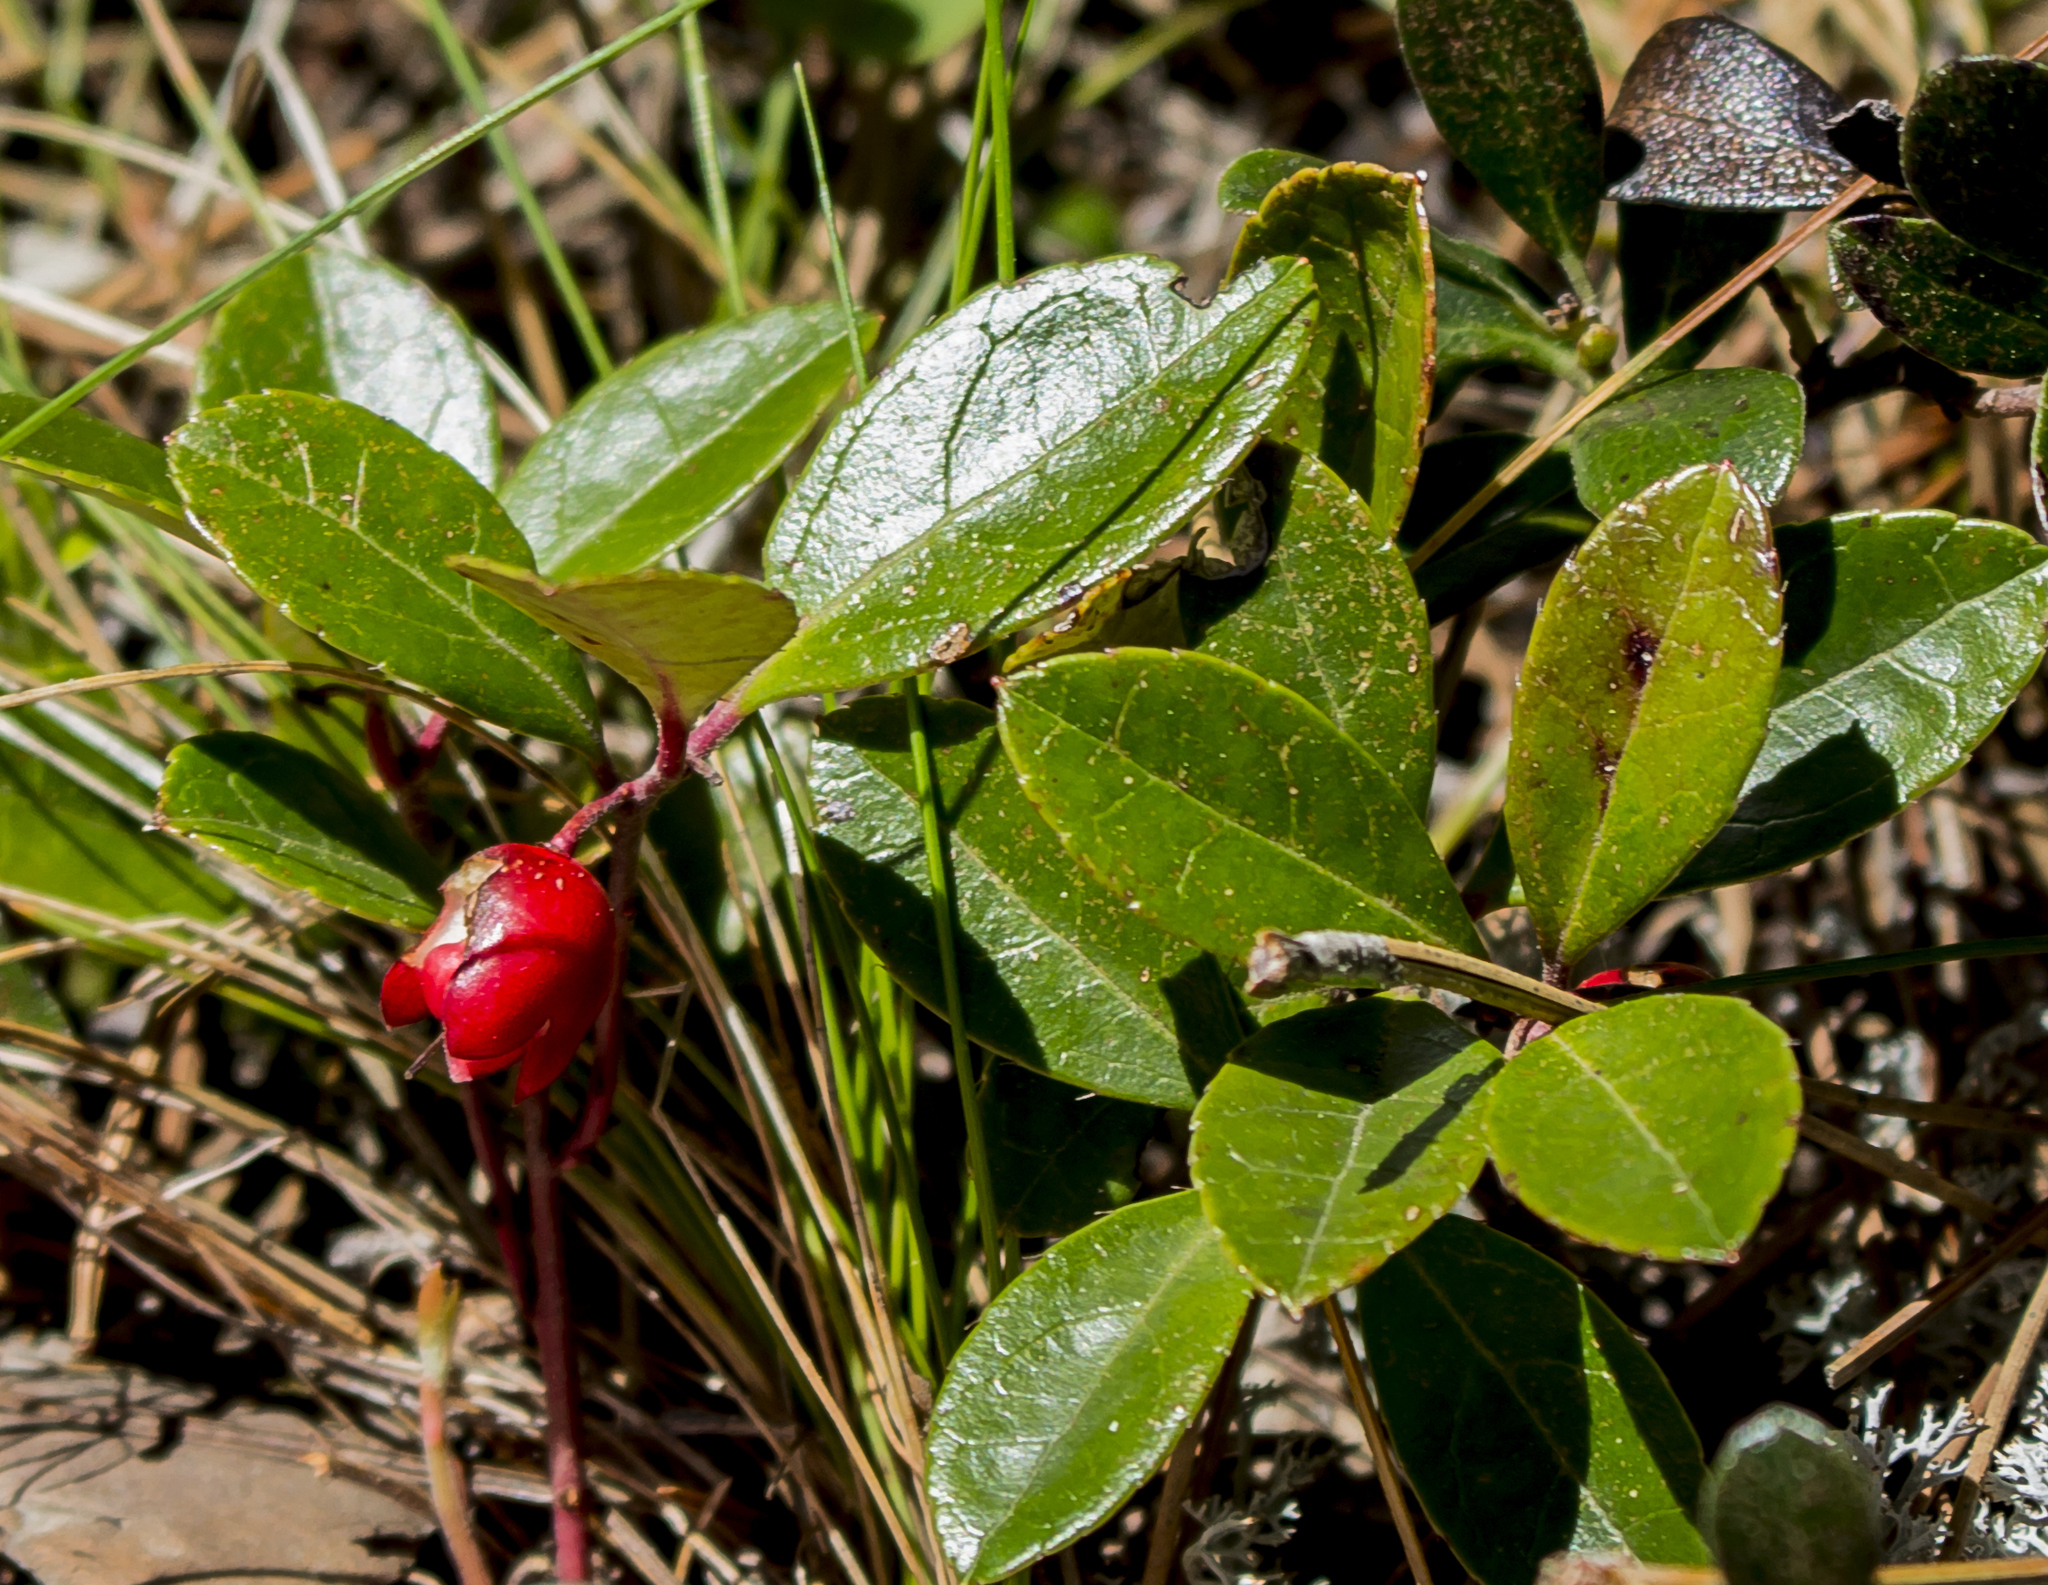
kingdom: Plantae
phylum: Tracheophyta
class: Magnoliopsida
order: Ericales
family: Ericaceae
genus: Gaultheria
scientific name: Gaultheria procumbens
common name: Checkerberry
